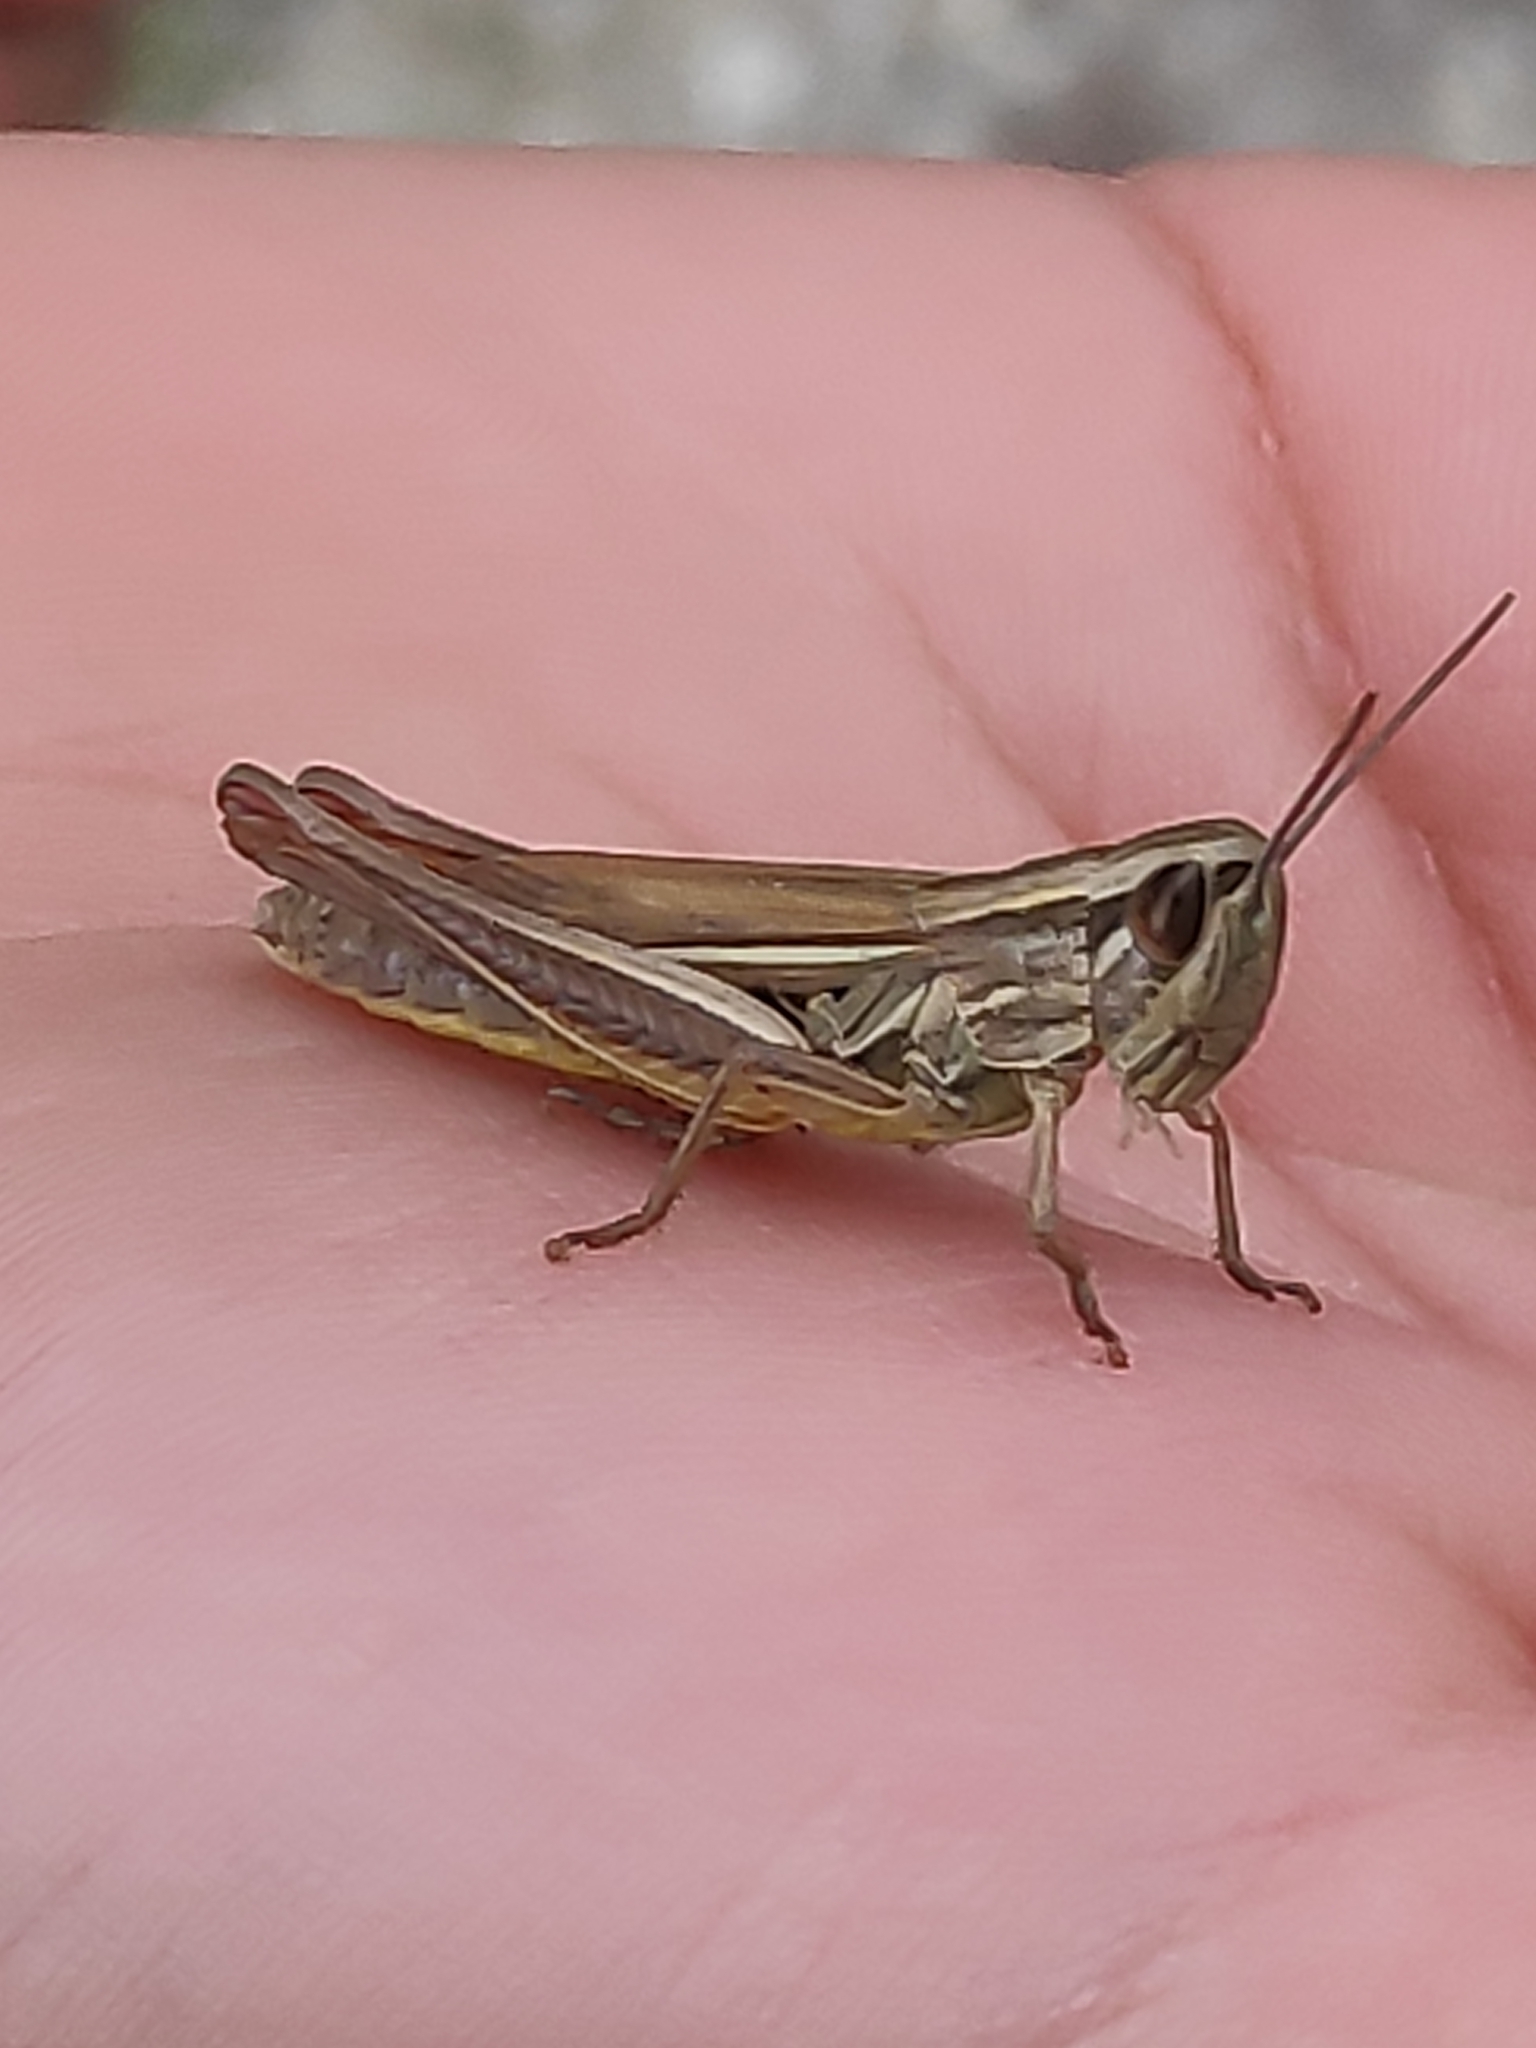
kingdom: Animalia
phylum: Arthropoda
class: Insecta
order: Orthoptera
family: Acrididae
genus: Euchorthippus
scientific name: Euchorthippus declivus
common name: Common straw grasshopper
